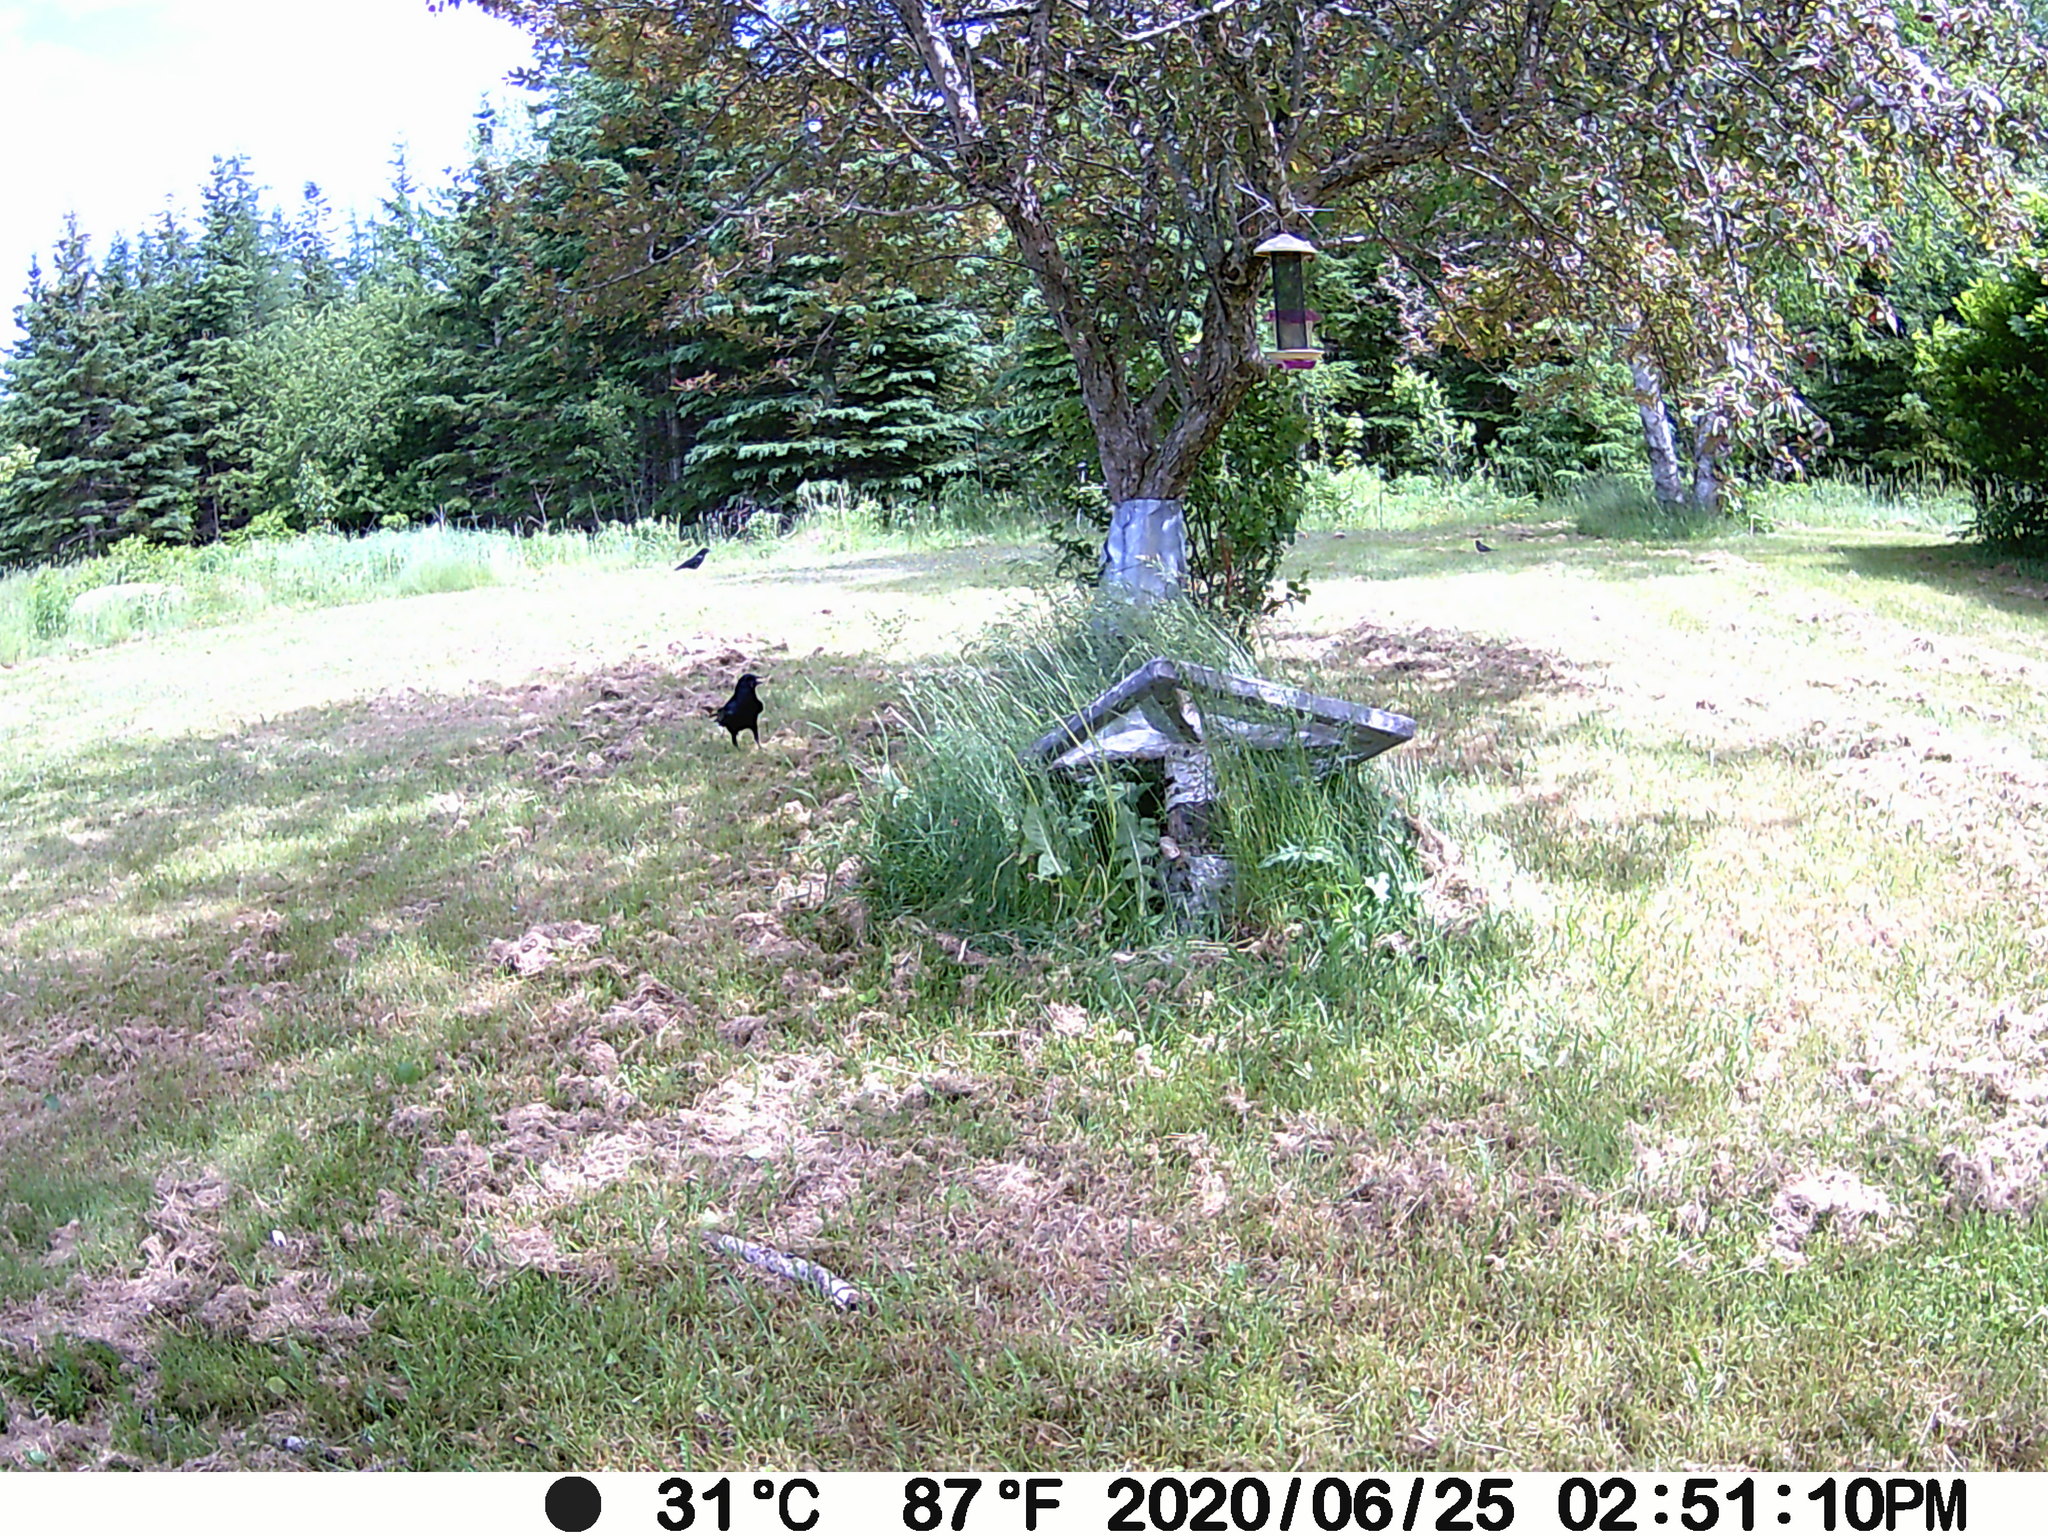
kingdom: Animalia
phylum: Chordata
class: Aves
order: Passeriformes
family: Corvidae
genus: Corvus
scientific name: Corvus brachyrhynchos
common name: American crow
